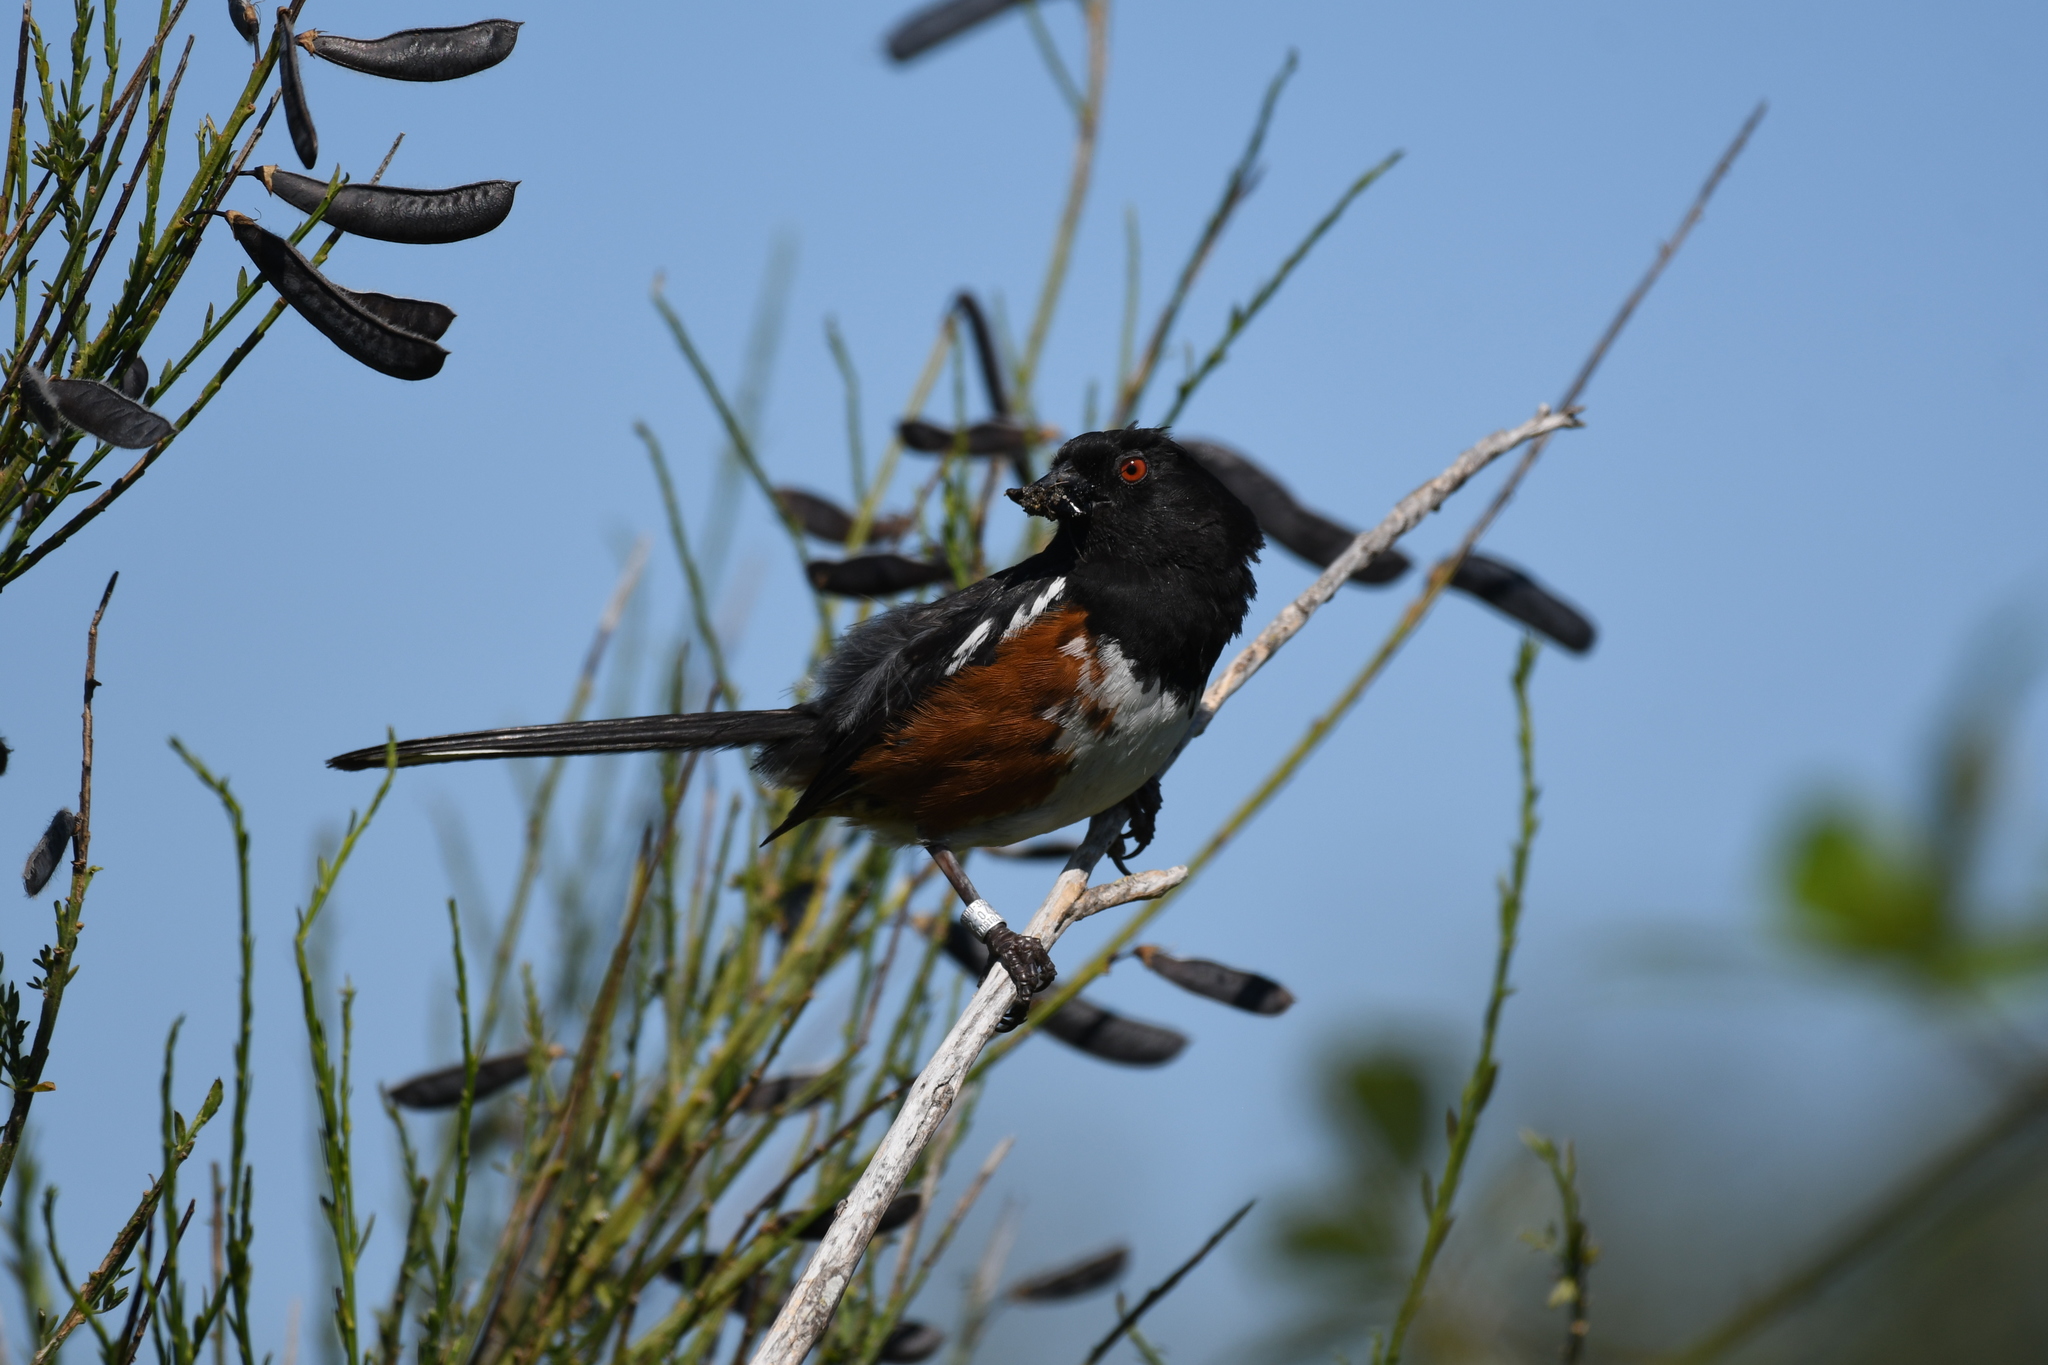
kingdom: Animalia
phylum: Chordata
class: Aves
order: Passeriformes
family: Passerellidae
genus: Pipilo
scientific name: Pipilo maculatus
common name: Spotted towhee
